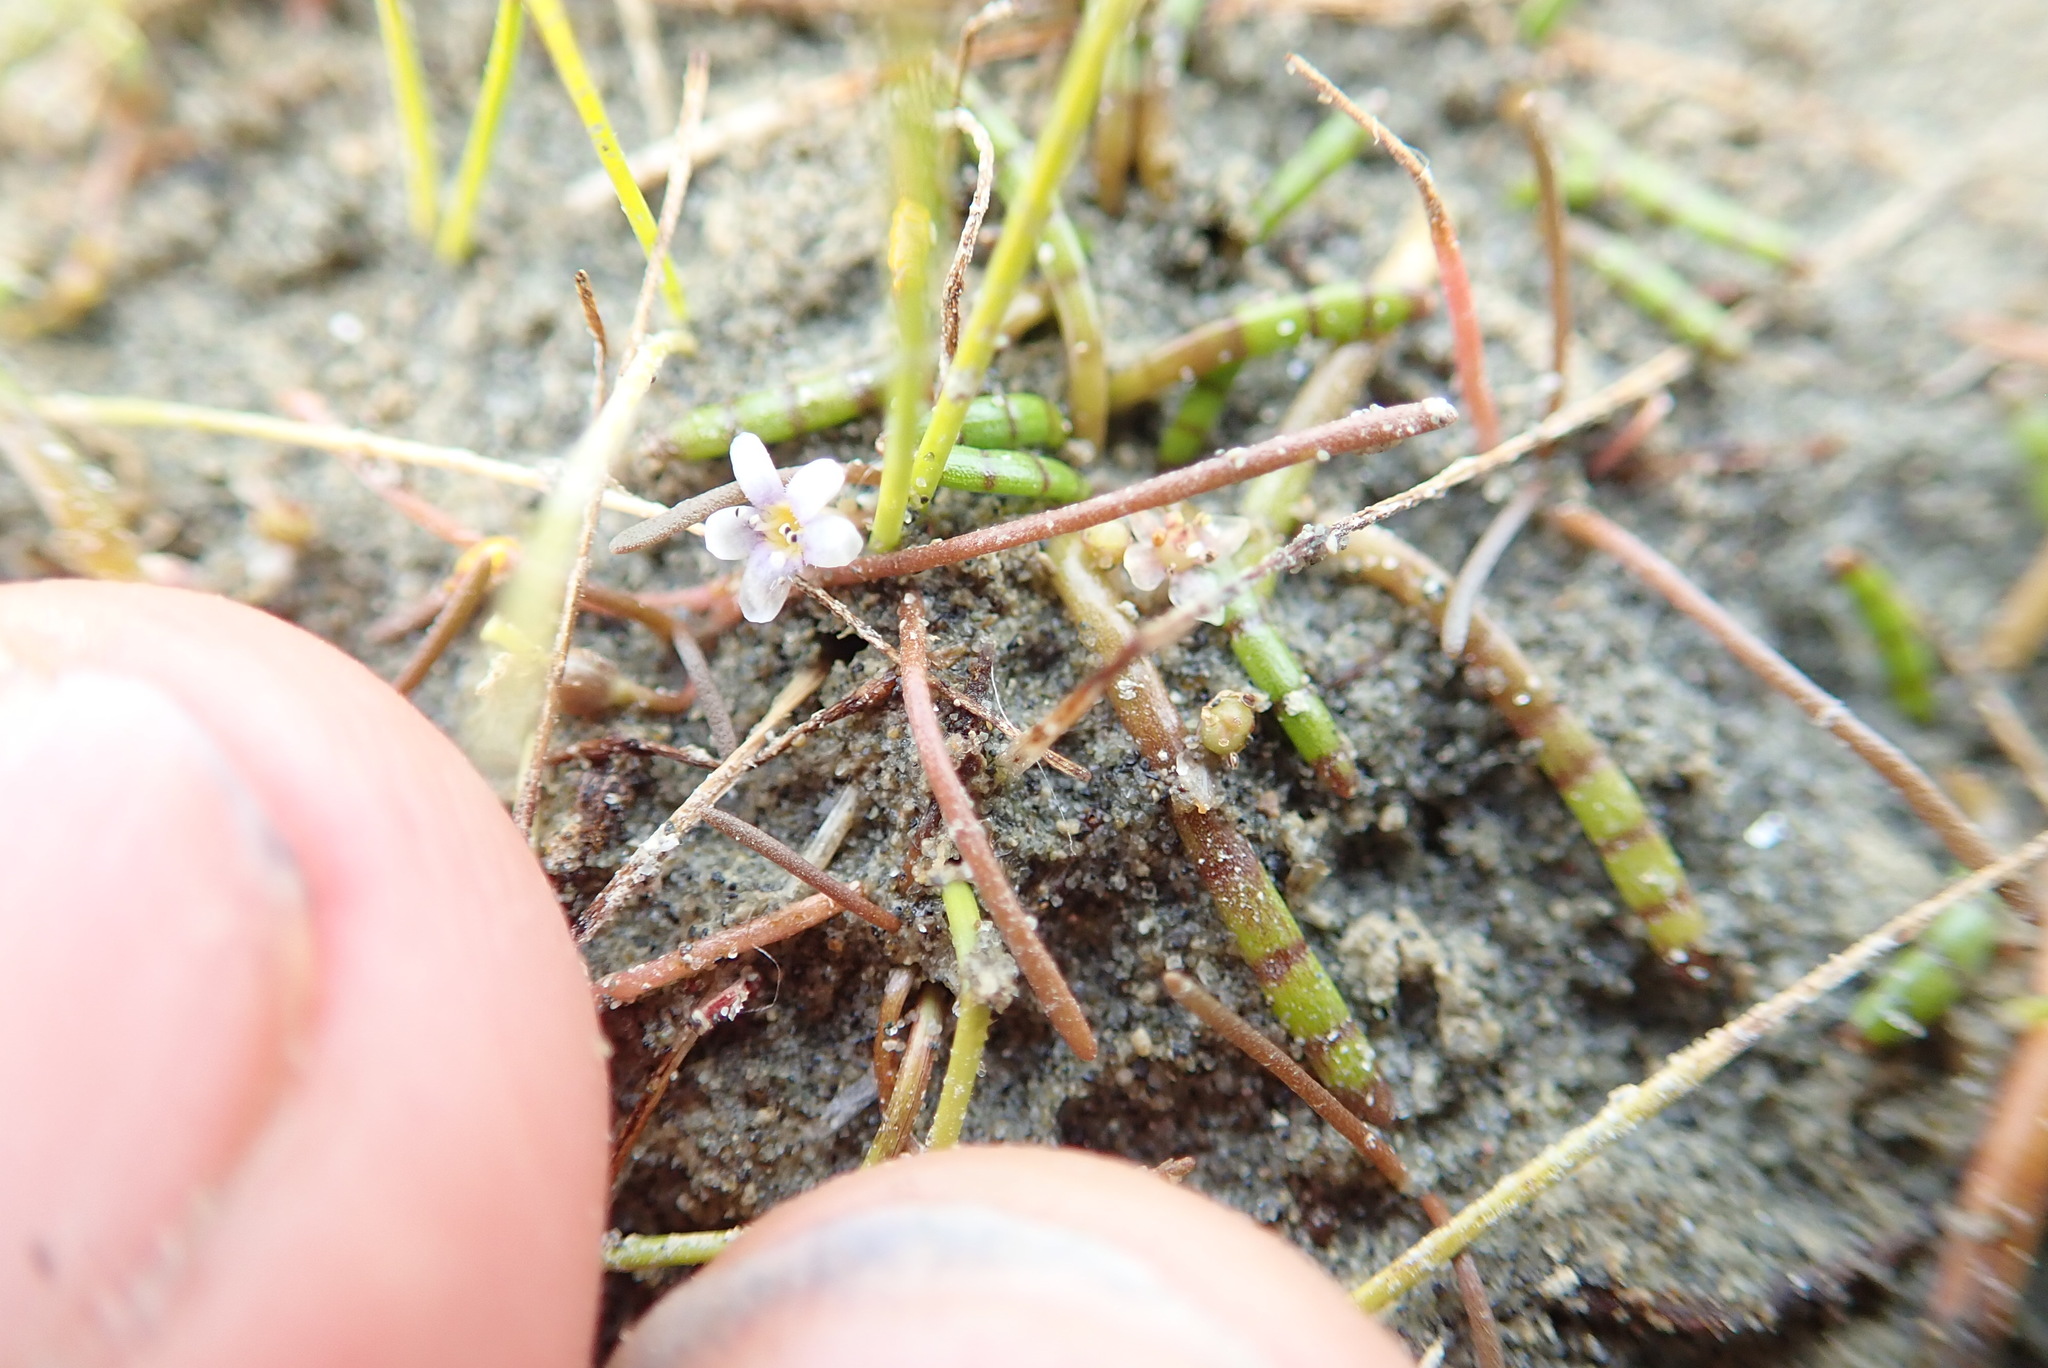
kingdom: Plantae
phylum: Tracheophyta
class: Magnoliopsida
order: Lamiales
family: Scrophulariaceae
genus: Limosella
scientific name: Limosella australis
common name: Welsh mudwort
